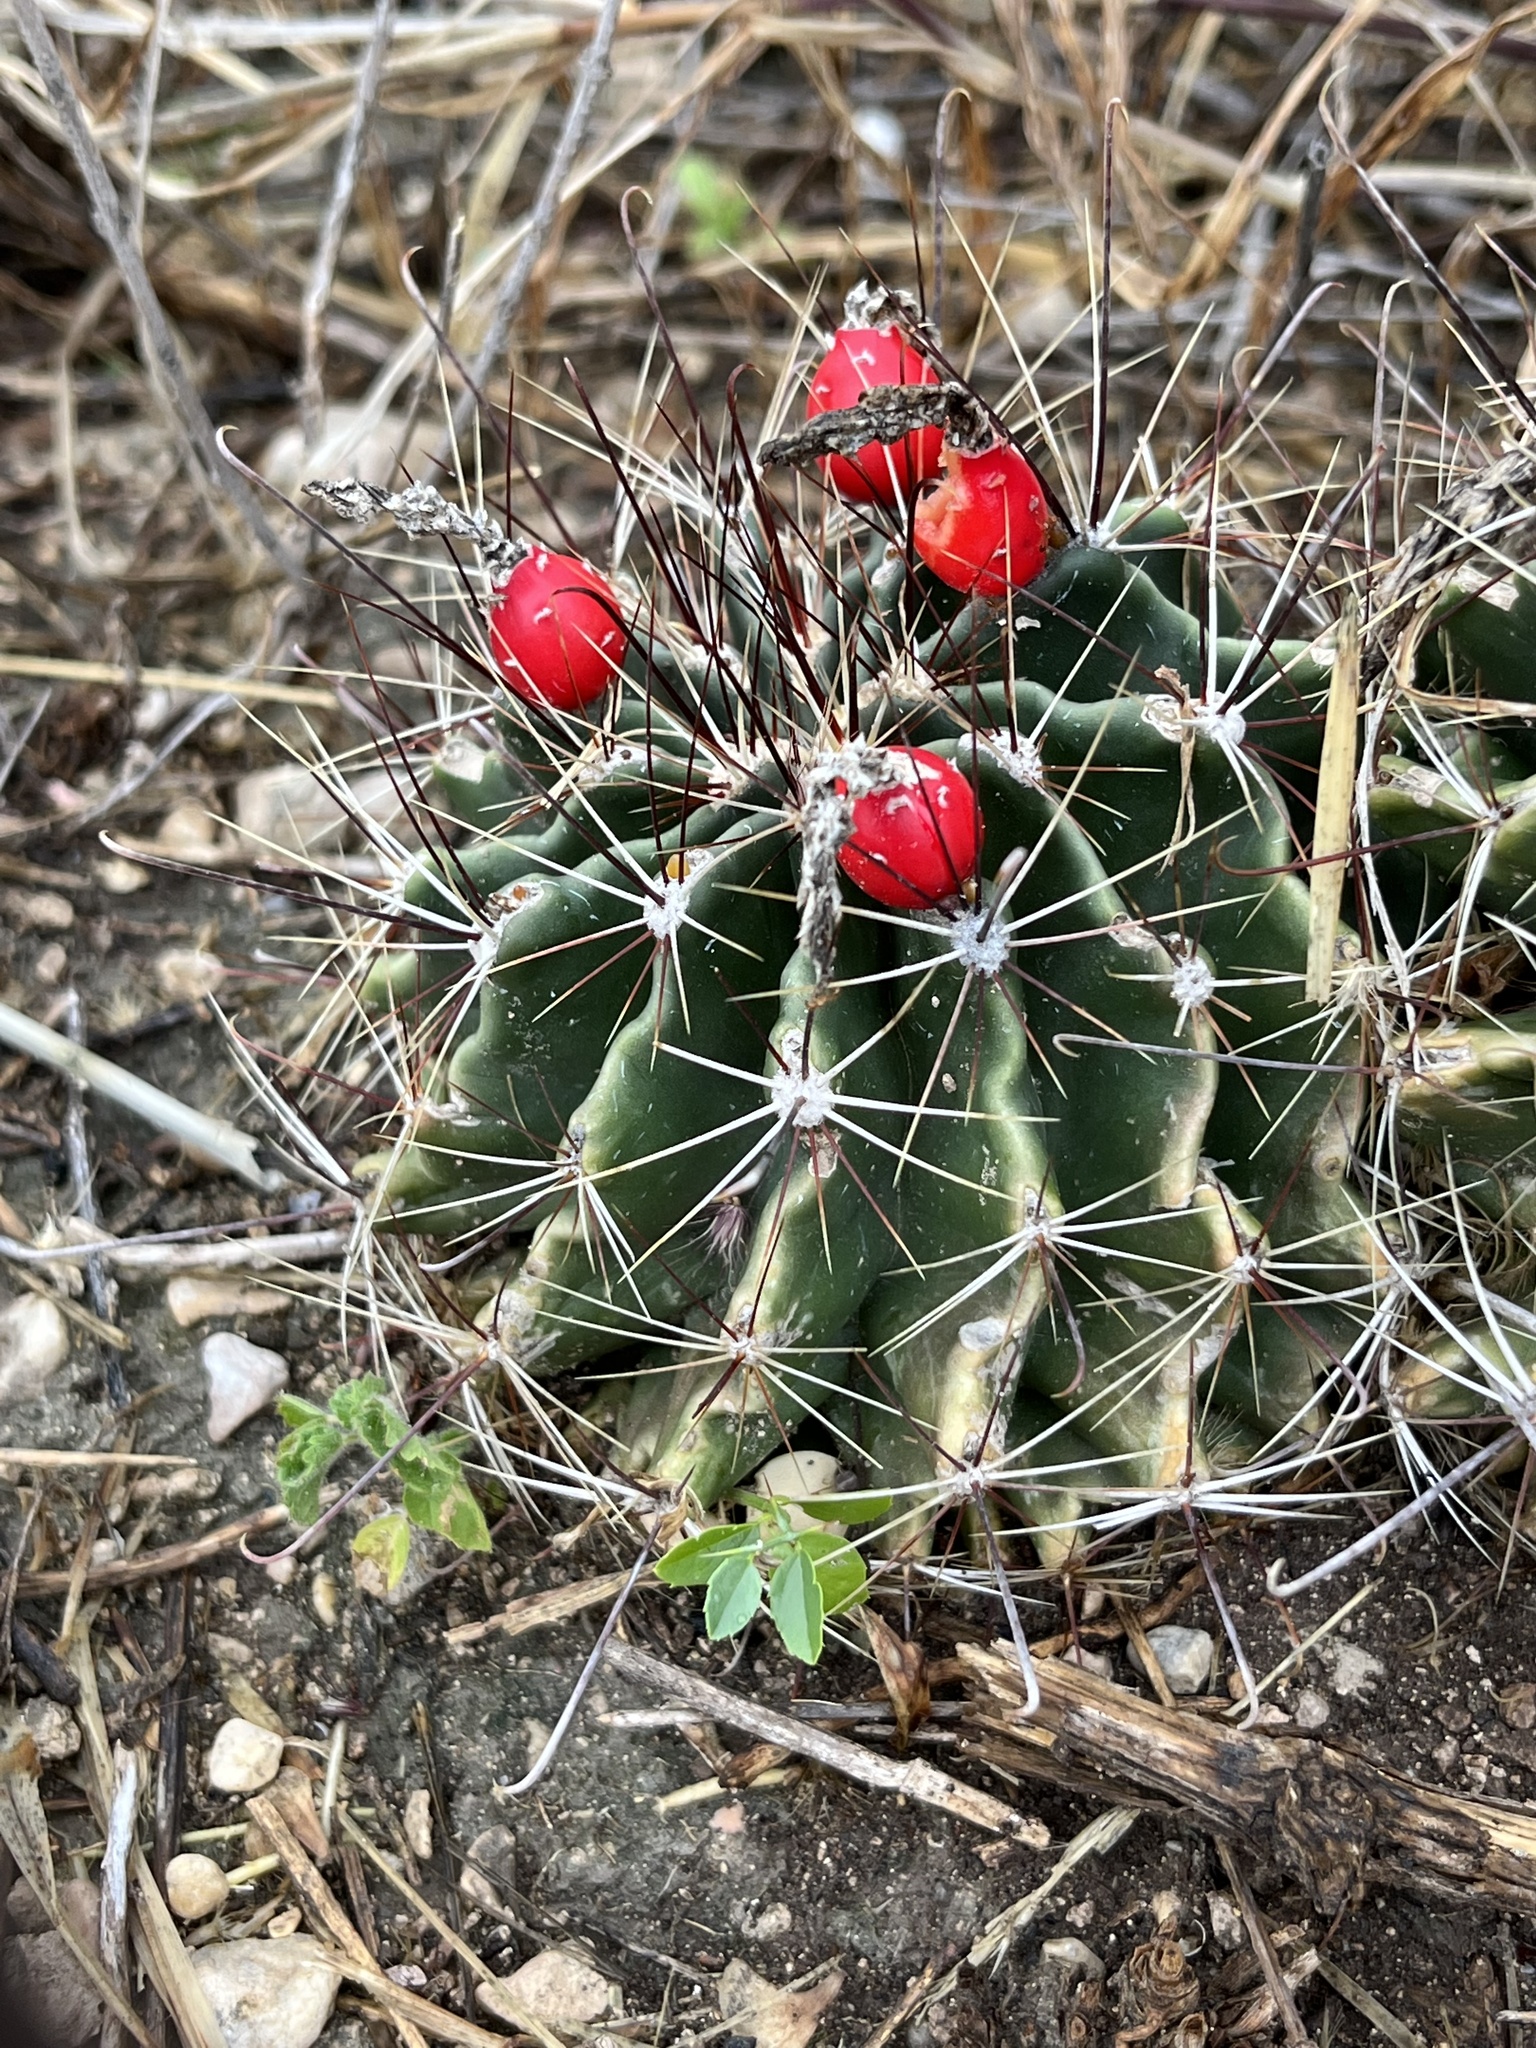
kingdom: Plantae
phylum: Tracheophyta
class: Magnoliopsida
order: Caryophyllales
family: Cactaceae
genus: Thelocactus
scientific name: Thelocactus setispinus
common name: Miniature barrel cactus
